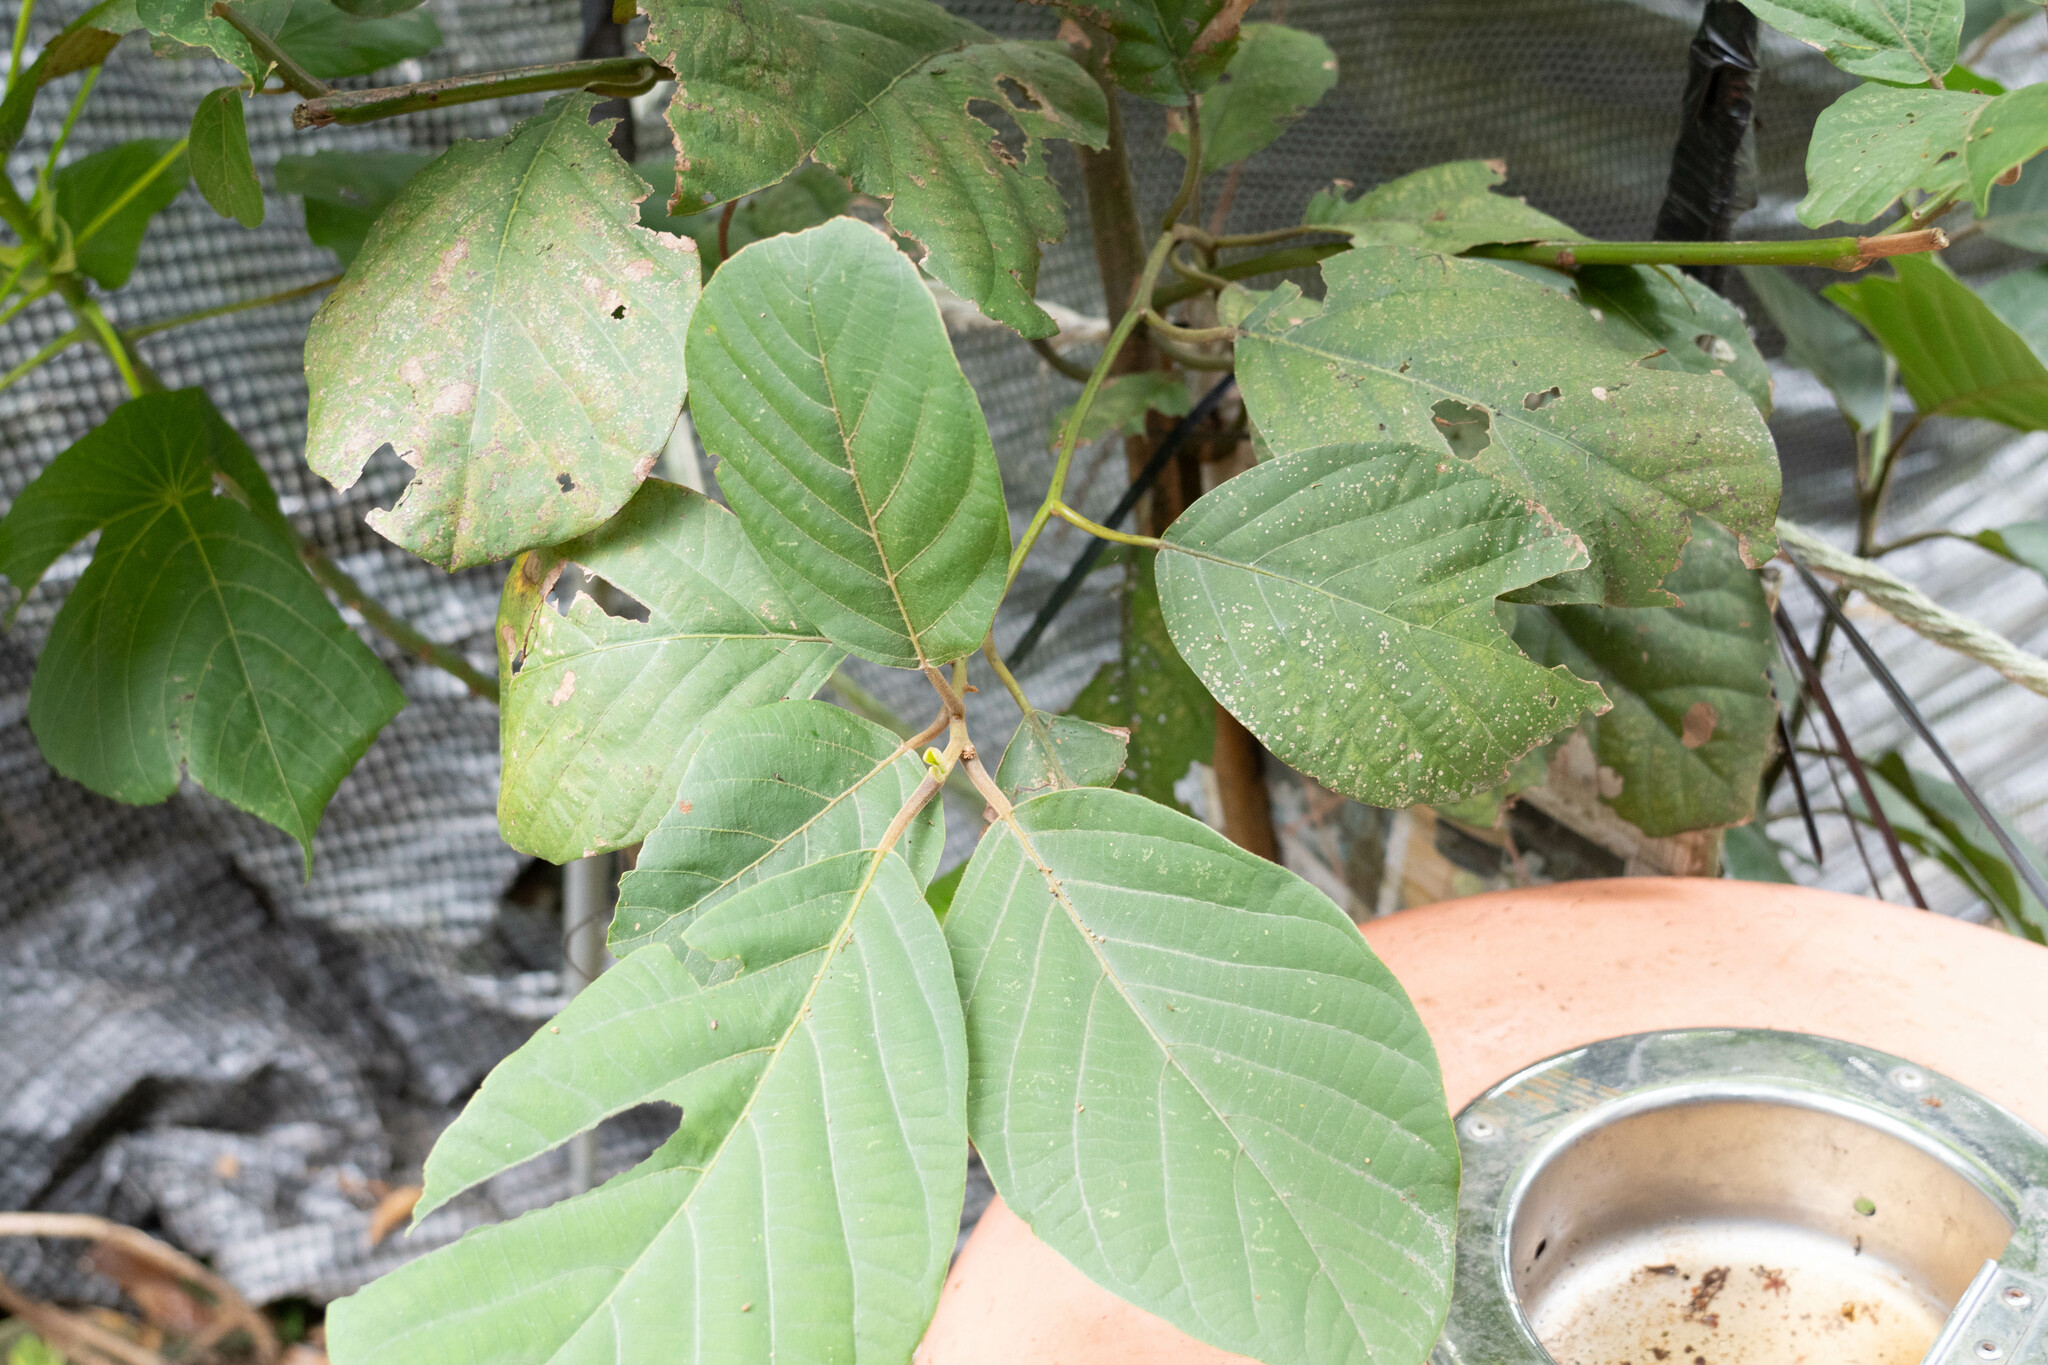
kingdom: Plantae
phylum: Tracheophyta
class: Magnoliopsida
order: Laurales
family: Lauraceae
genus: Litsea
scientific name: Litsea monopetala
